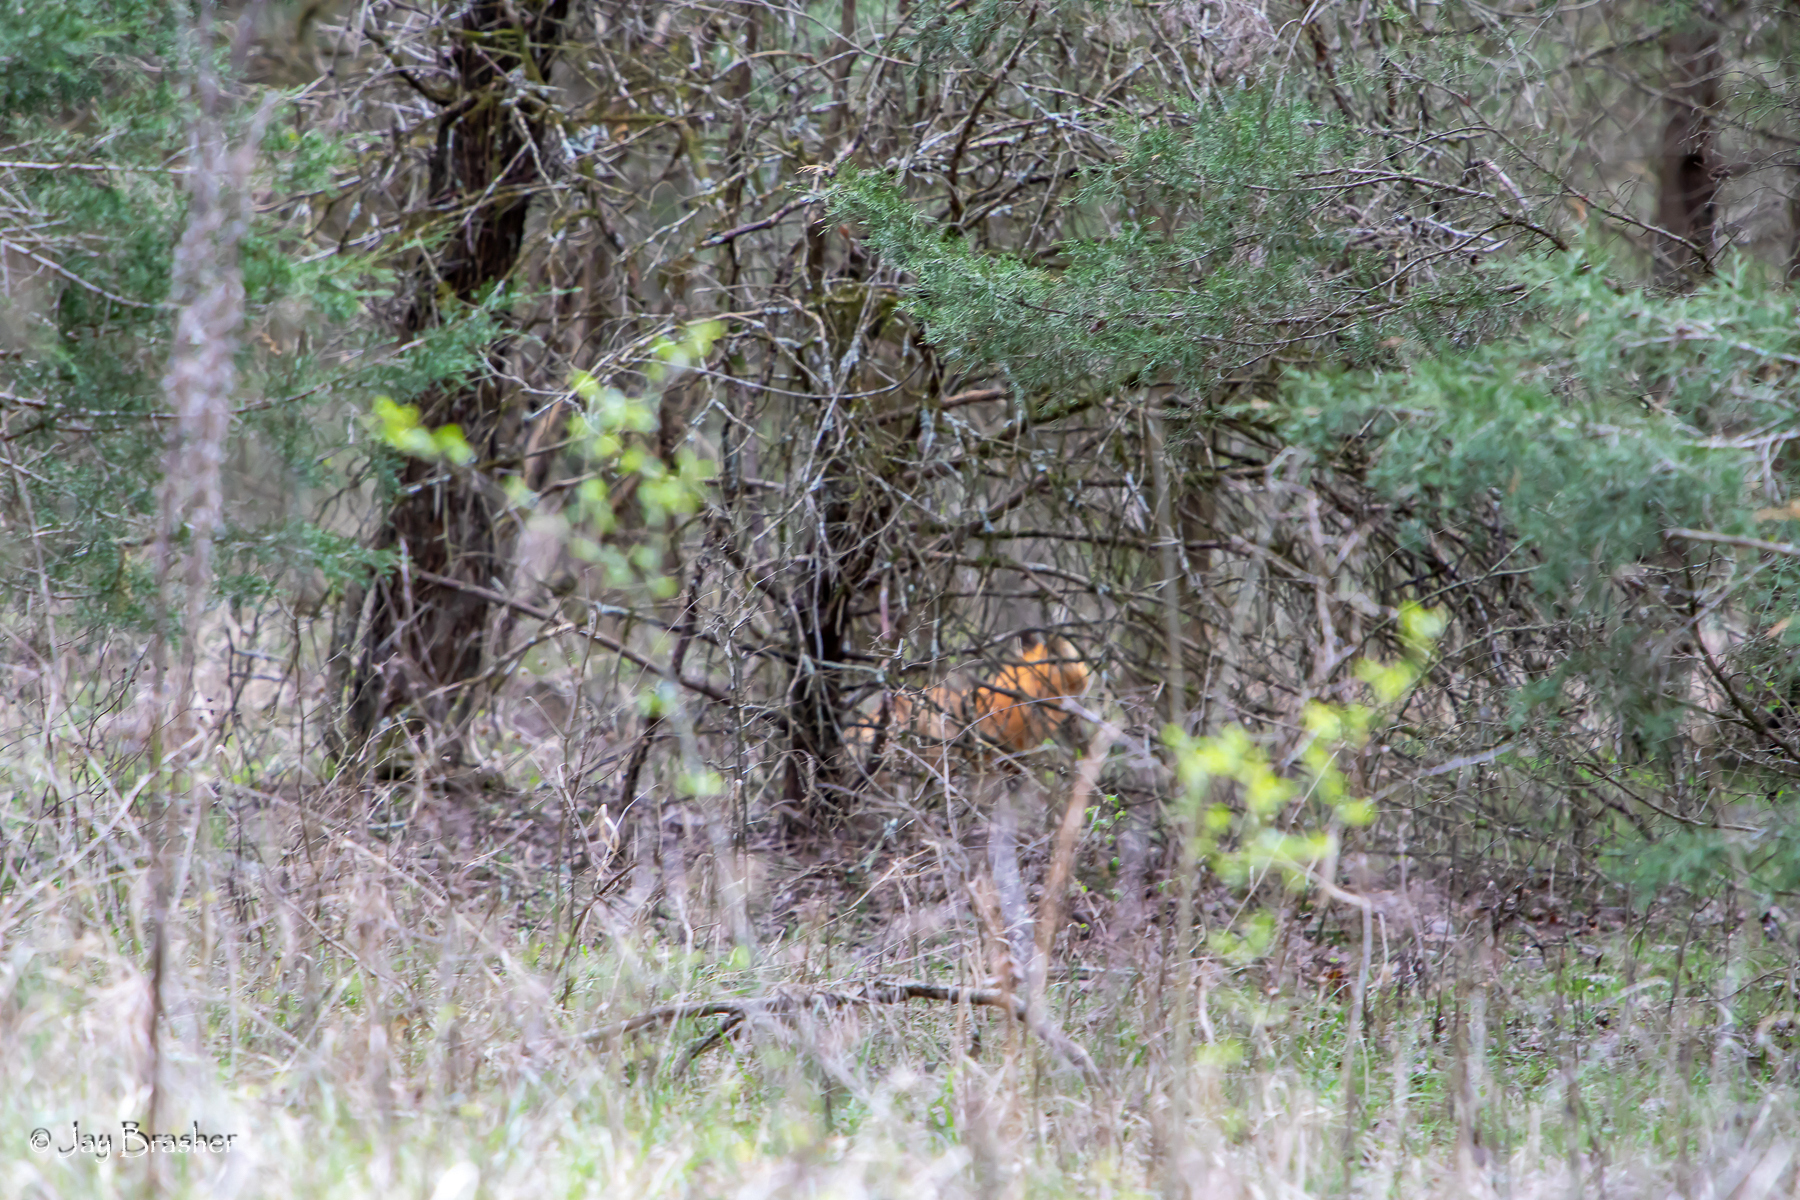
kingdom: Animalia
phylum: Chordata
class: Mammalia
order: Carnivora
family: Canidae
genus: Vulpes
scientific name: Vulpes vulpes
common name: Red fox
